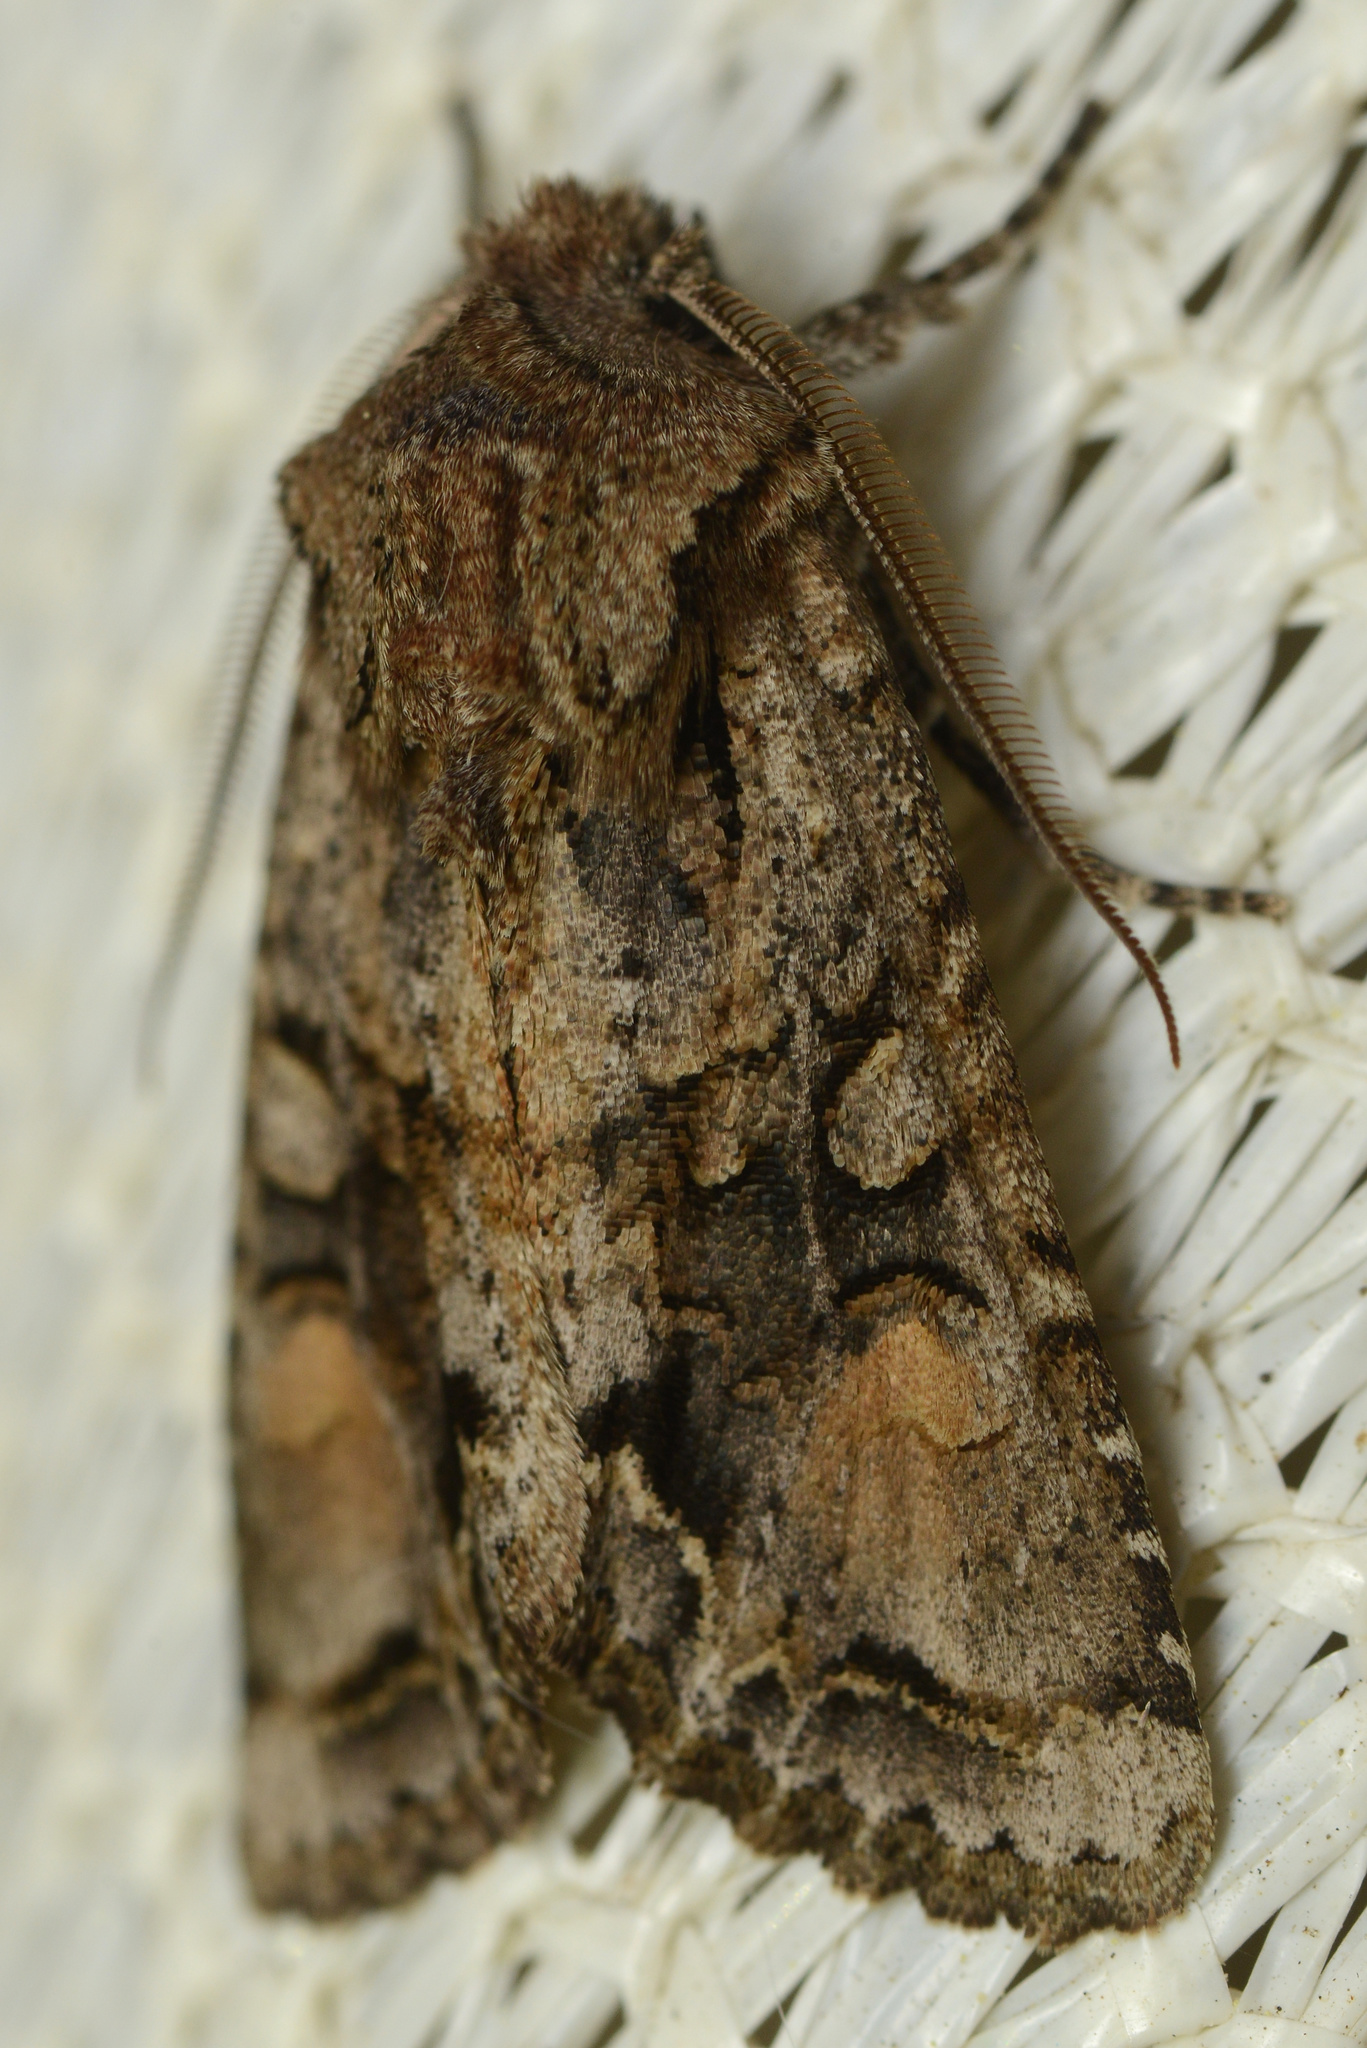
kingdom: Animalia
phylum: Arthropoda
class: Insecta
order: Lepidoptera
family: Noctuidae
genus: Ichneutica
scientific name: Ichneutica
